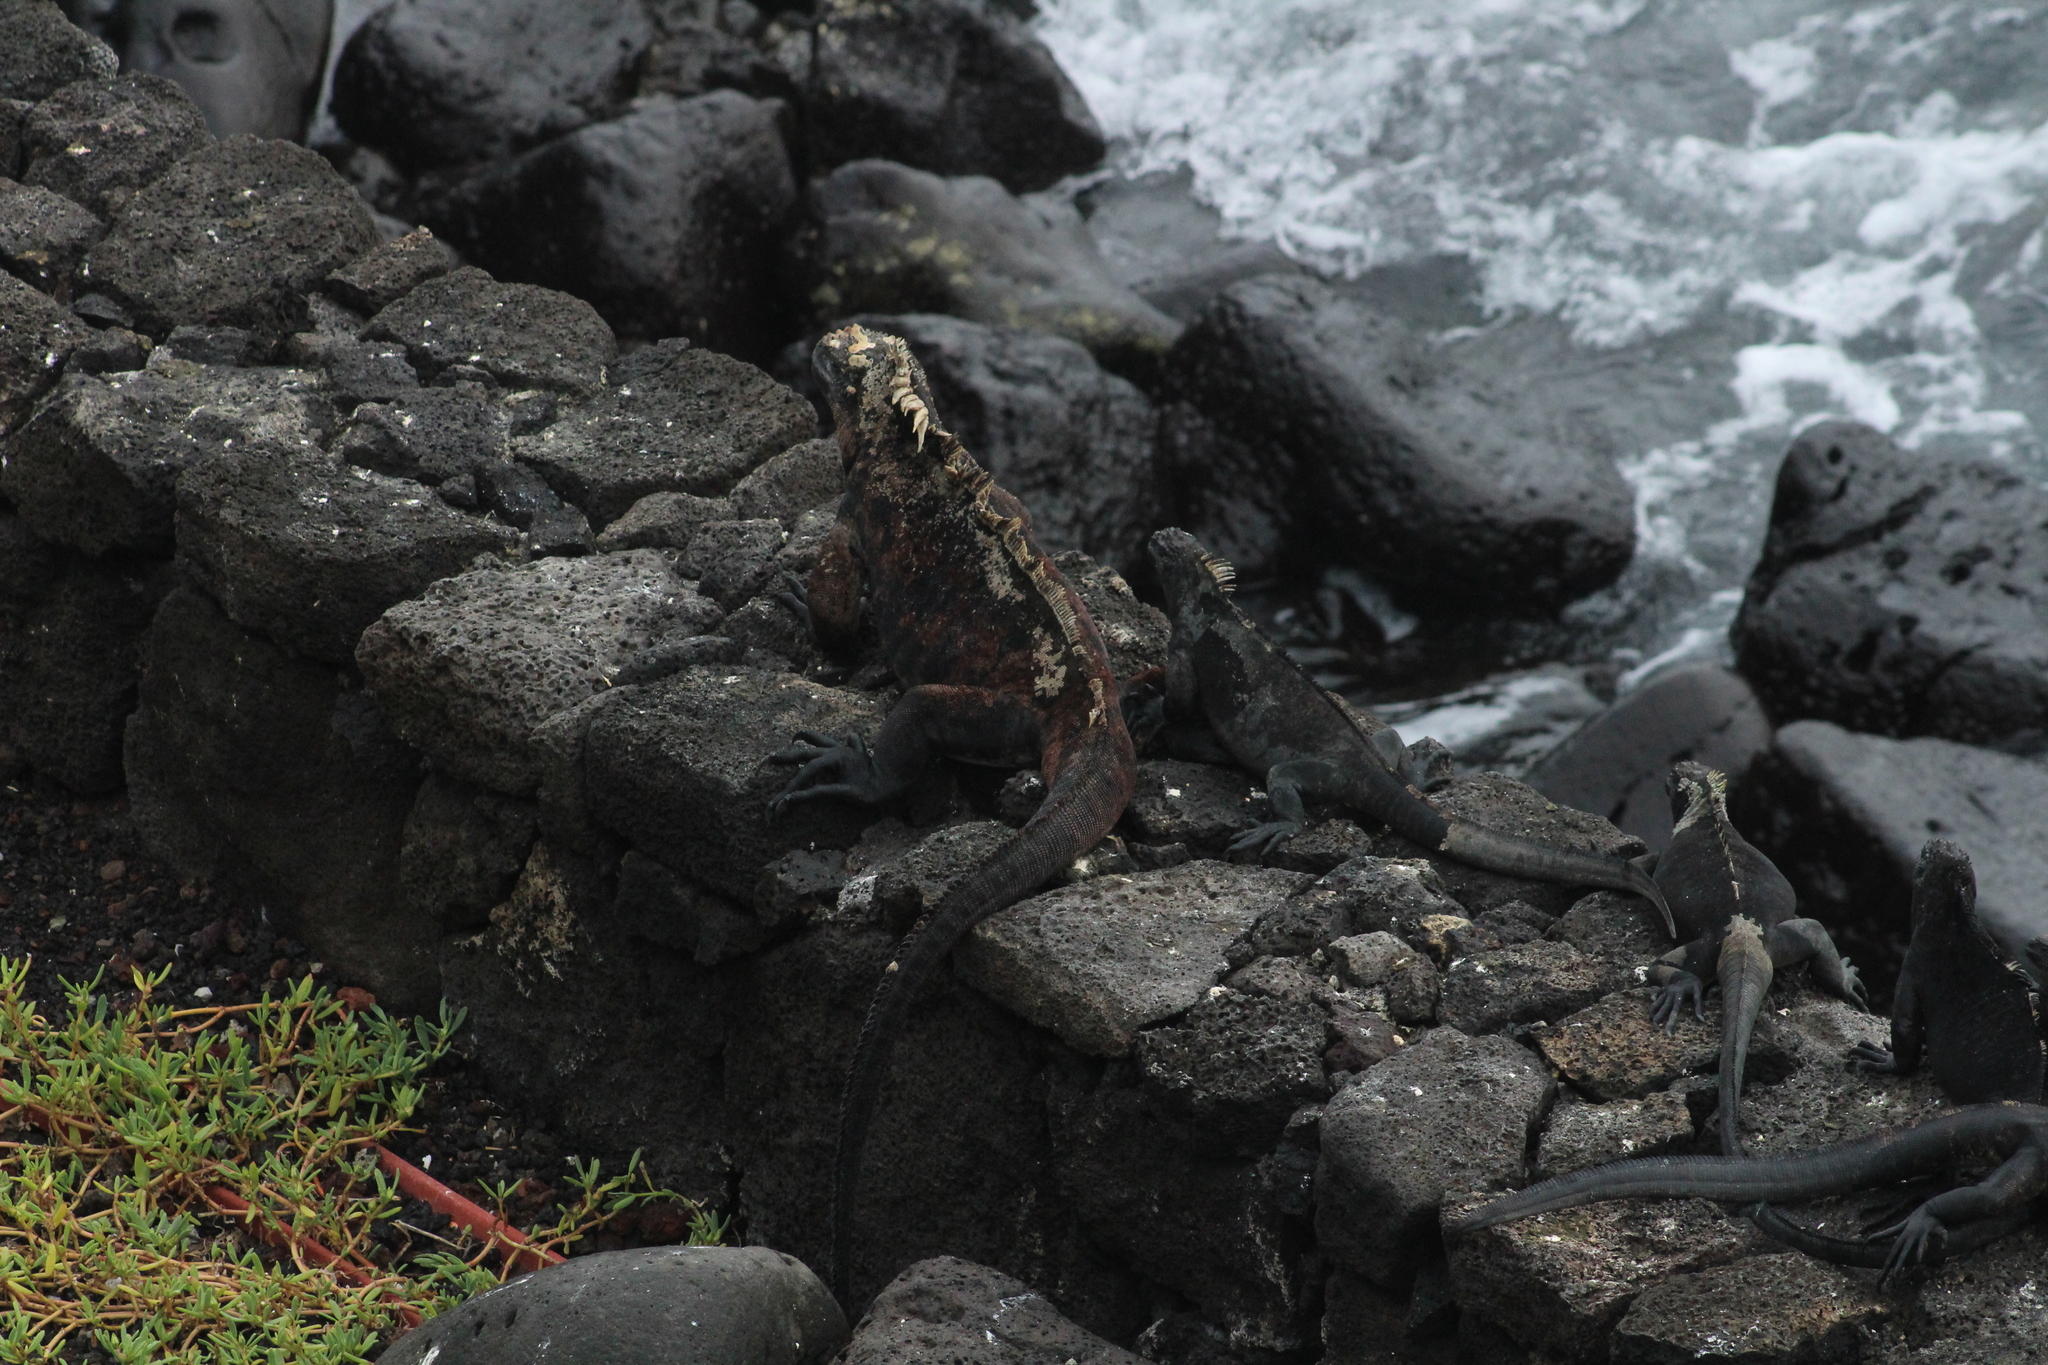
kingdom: Animalia
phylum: Chordata
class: Squamata
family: Iguanidae
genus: Amblyrhynchus
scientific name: Amblyrhynchus cristatus
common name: Marine iguana
